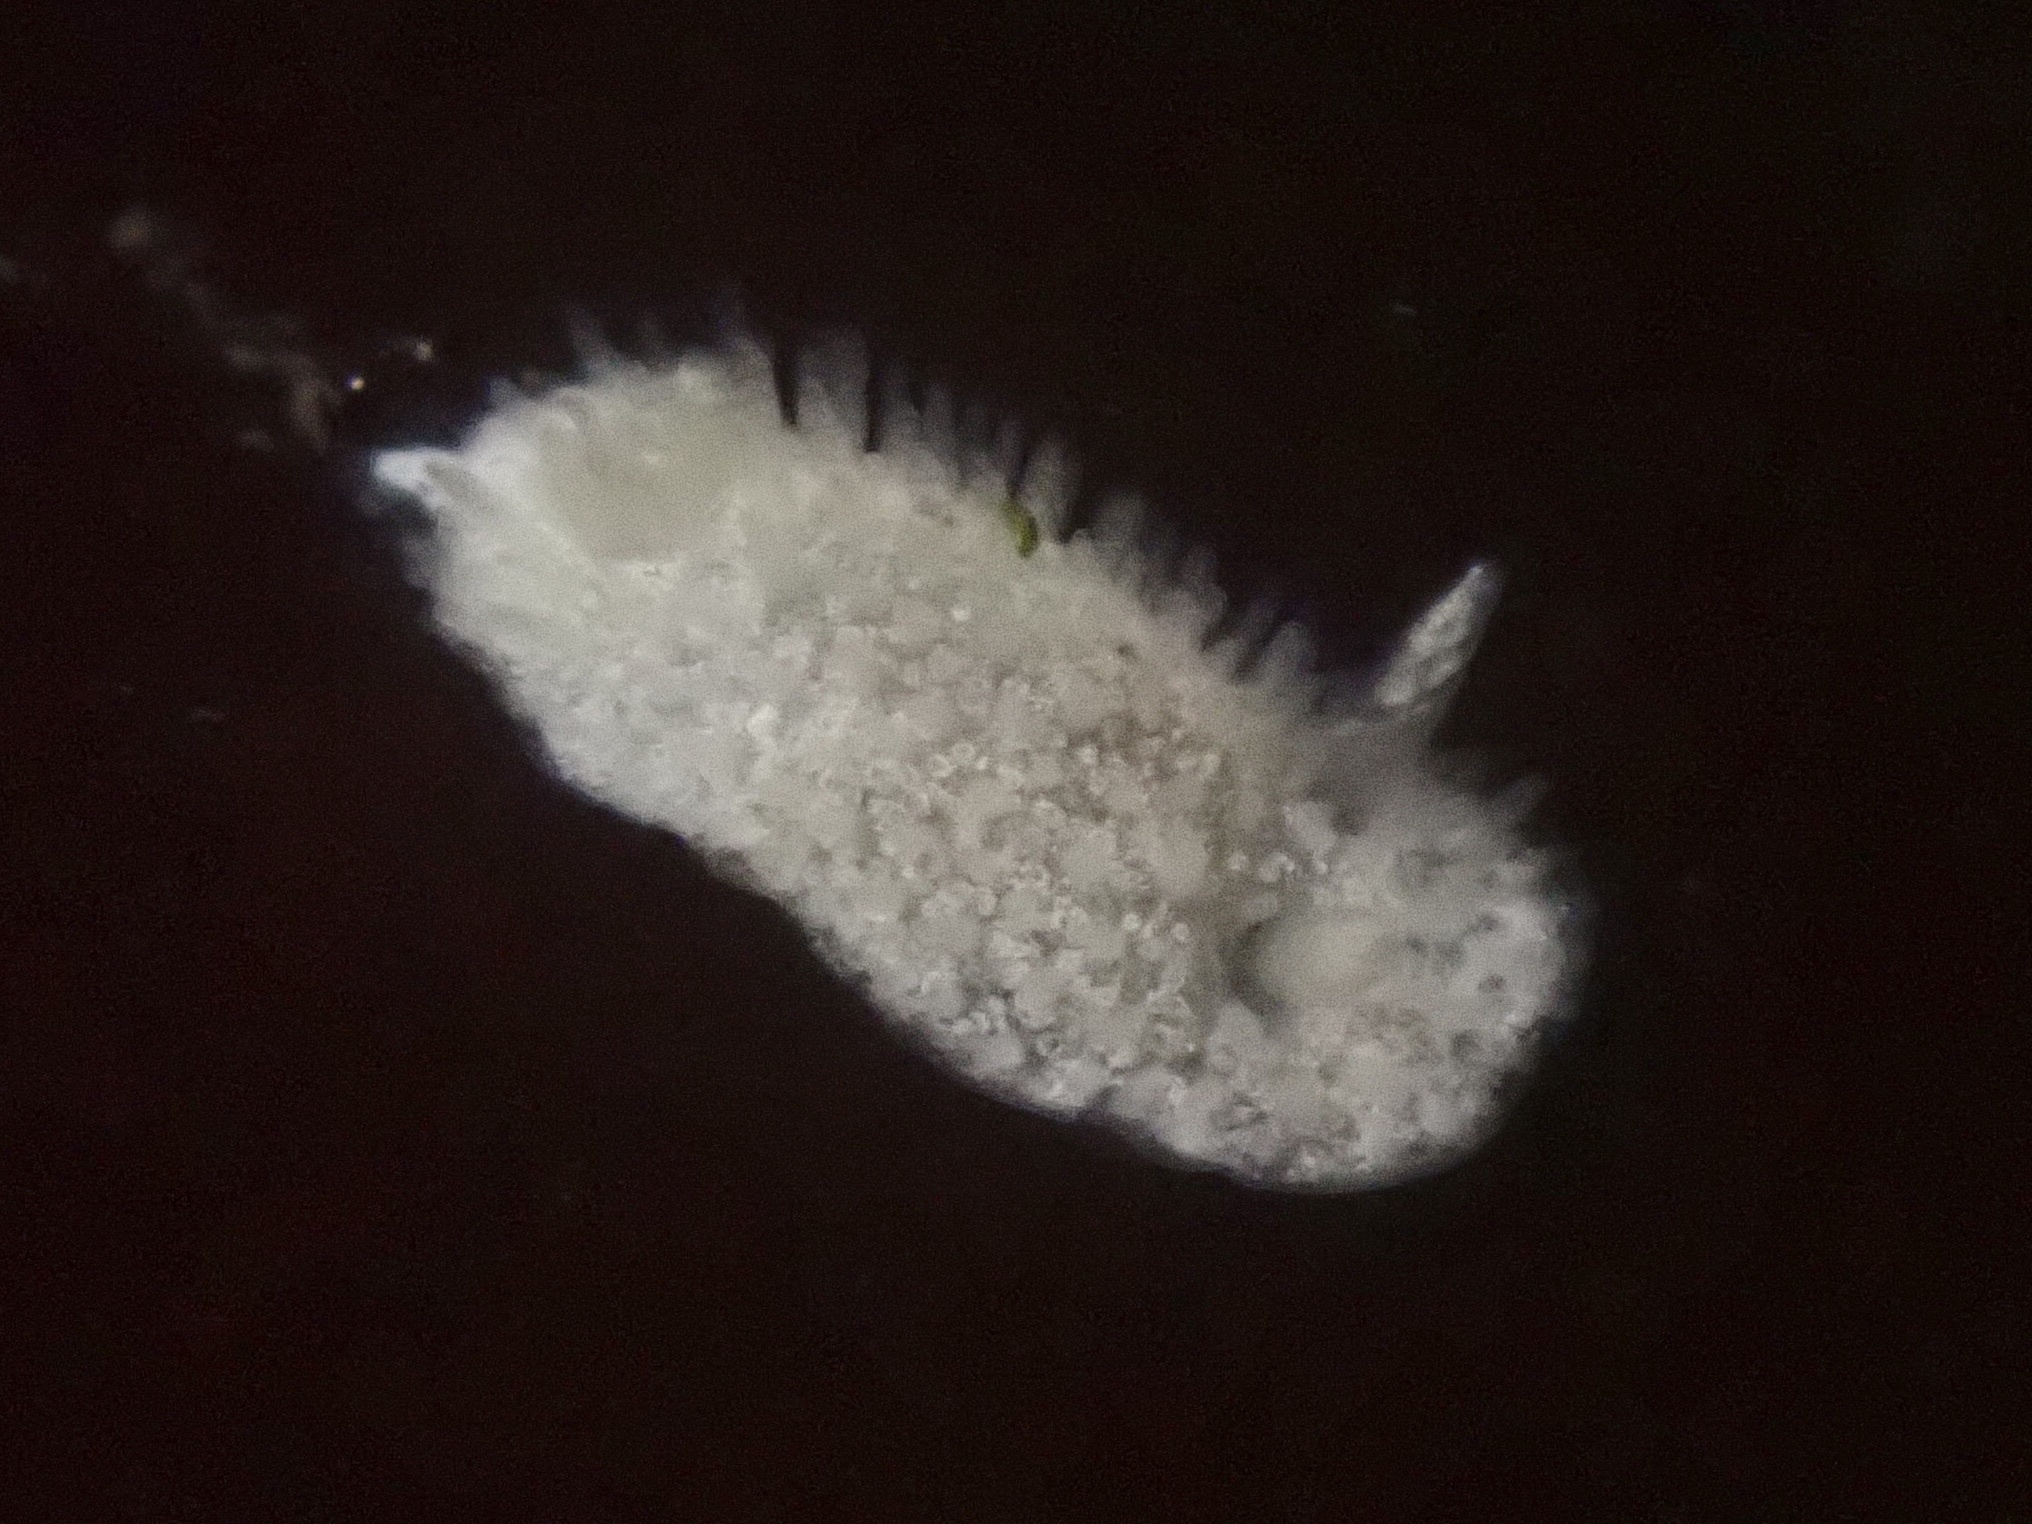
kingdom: Animalia
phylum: Mollusca
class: Gastropoda
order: Nudibranchia
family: Calycidorididae
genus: Diaphorodoris
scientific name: Diaphorodoris lirulatocauda
